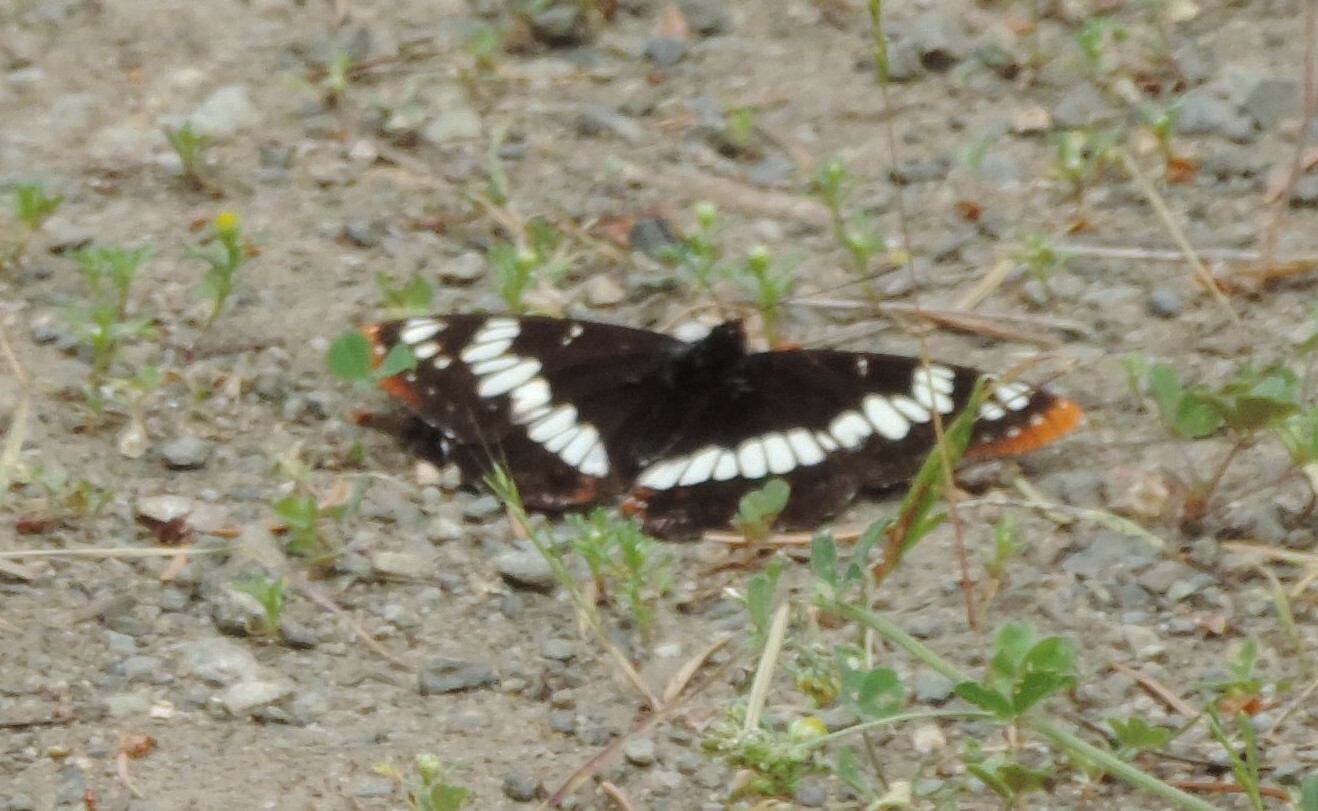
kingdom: Animalia
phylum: Arthropoda
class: Insecta
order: Lepidoptera
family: Nymphalidae
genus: Limenitis
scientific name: Limenitis lorquini
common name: Lorquin's admiral
